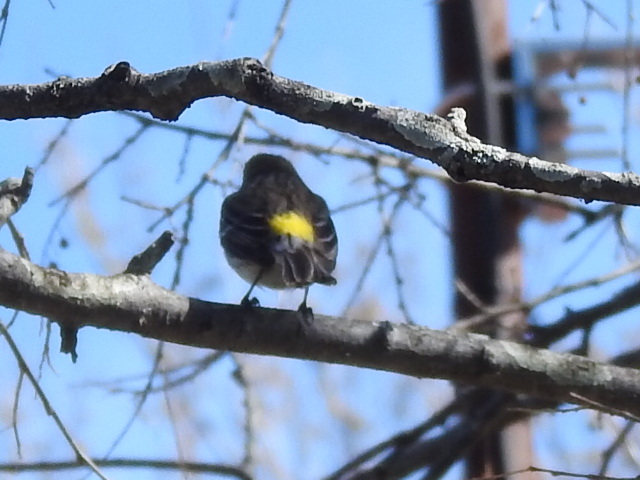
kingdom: Animalia
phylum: Chordata
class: Aves
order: Passeriformes
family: Parulidae
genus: Setophaga
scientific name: Setophaga coronata
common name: Myrtle warbler
